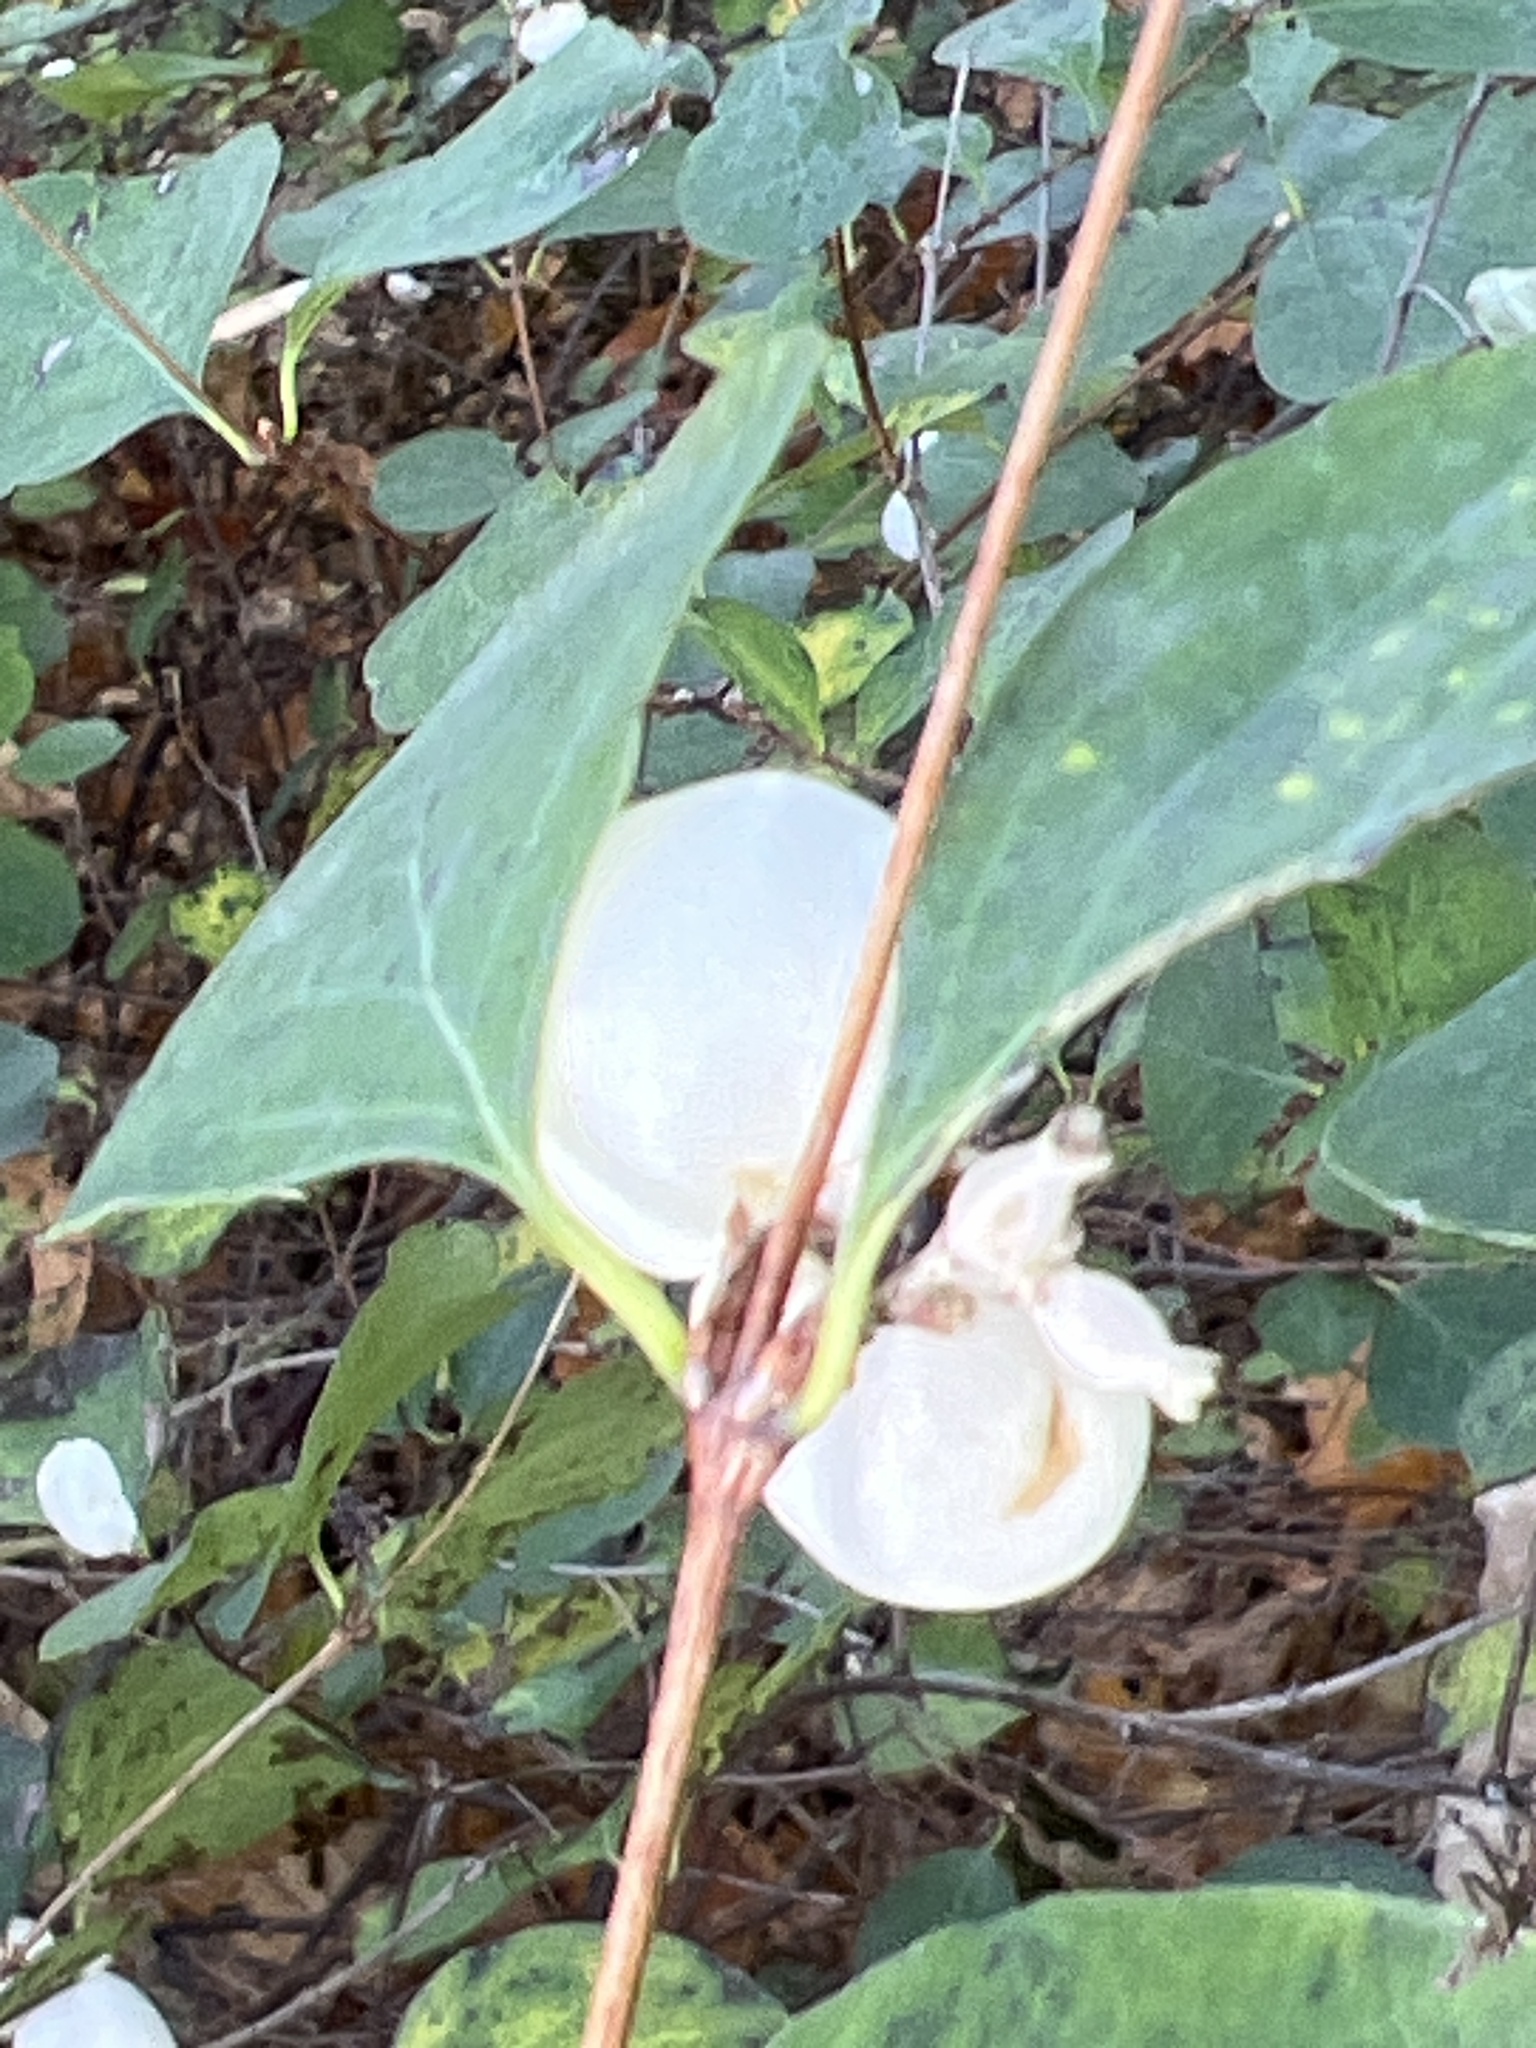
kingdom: Plantae
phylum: Tracheophyta
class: Magnoliopsida
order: Dipsacales
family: Caprifoliaceae
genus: Symphoricarpos
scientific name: Symphoricarpos albus
